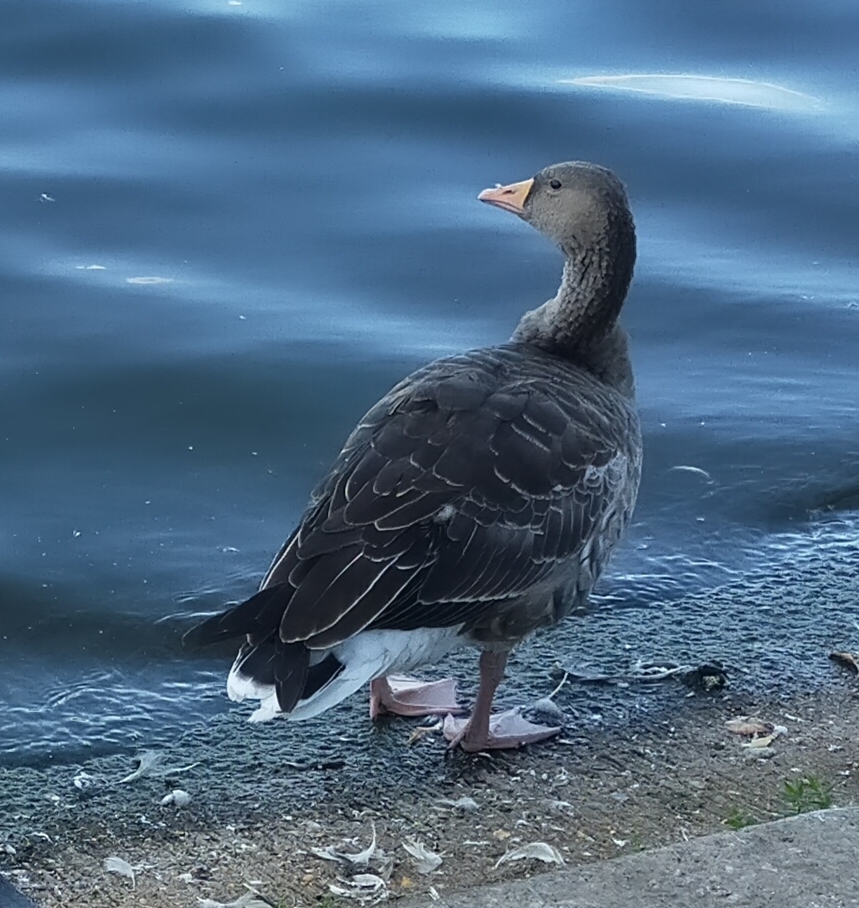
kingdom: Animalia
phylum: Chordata
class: Aves
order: Anseriformes
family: Anatidae
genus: Anser
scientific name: Anser anser
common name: Greylag goose
